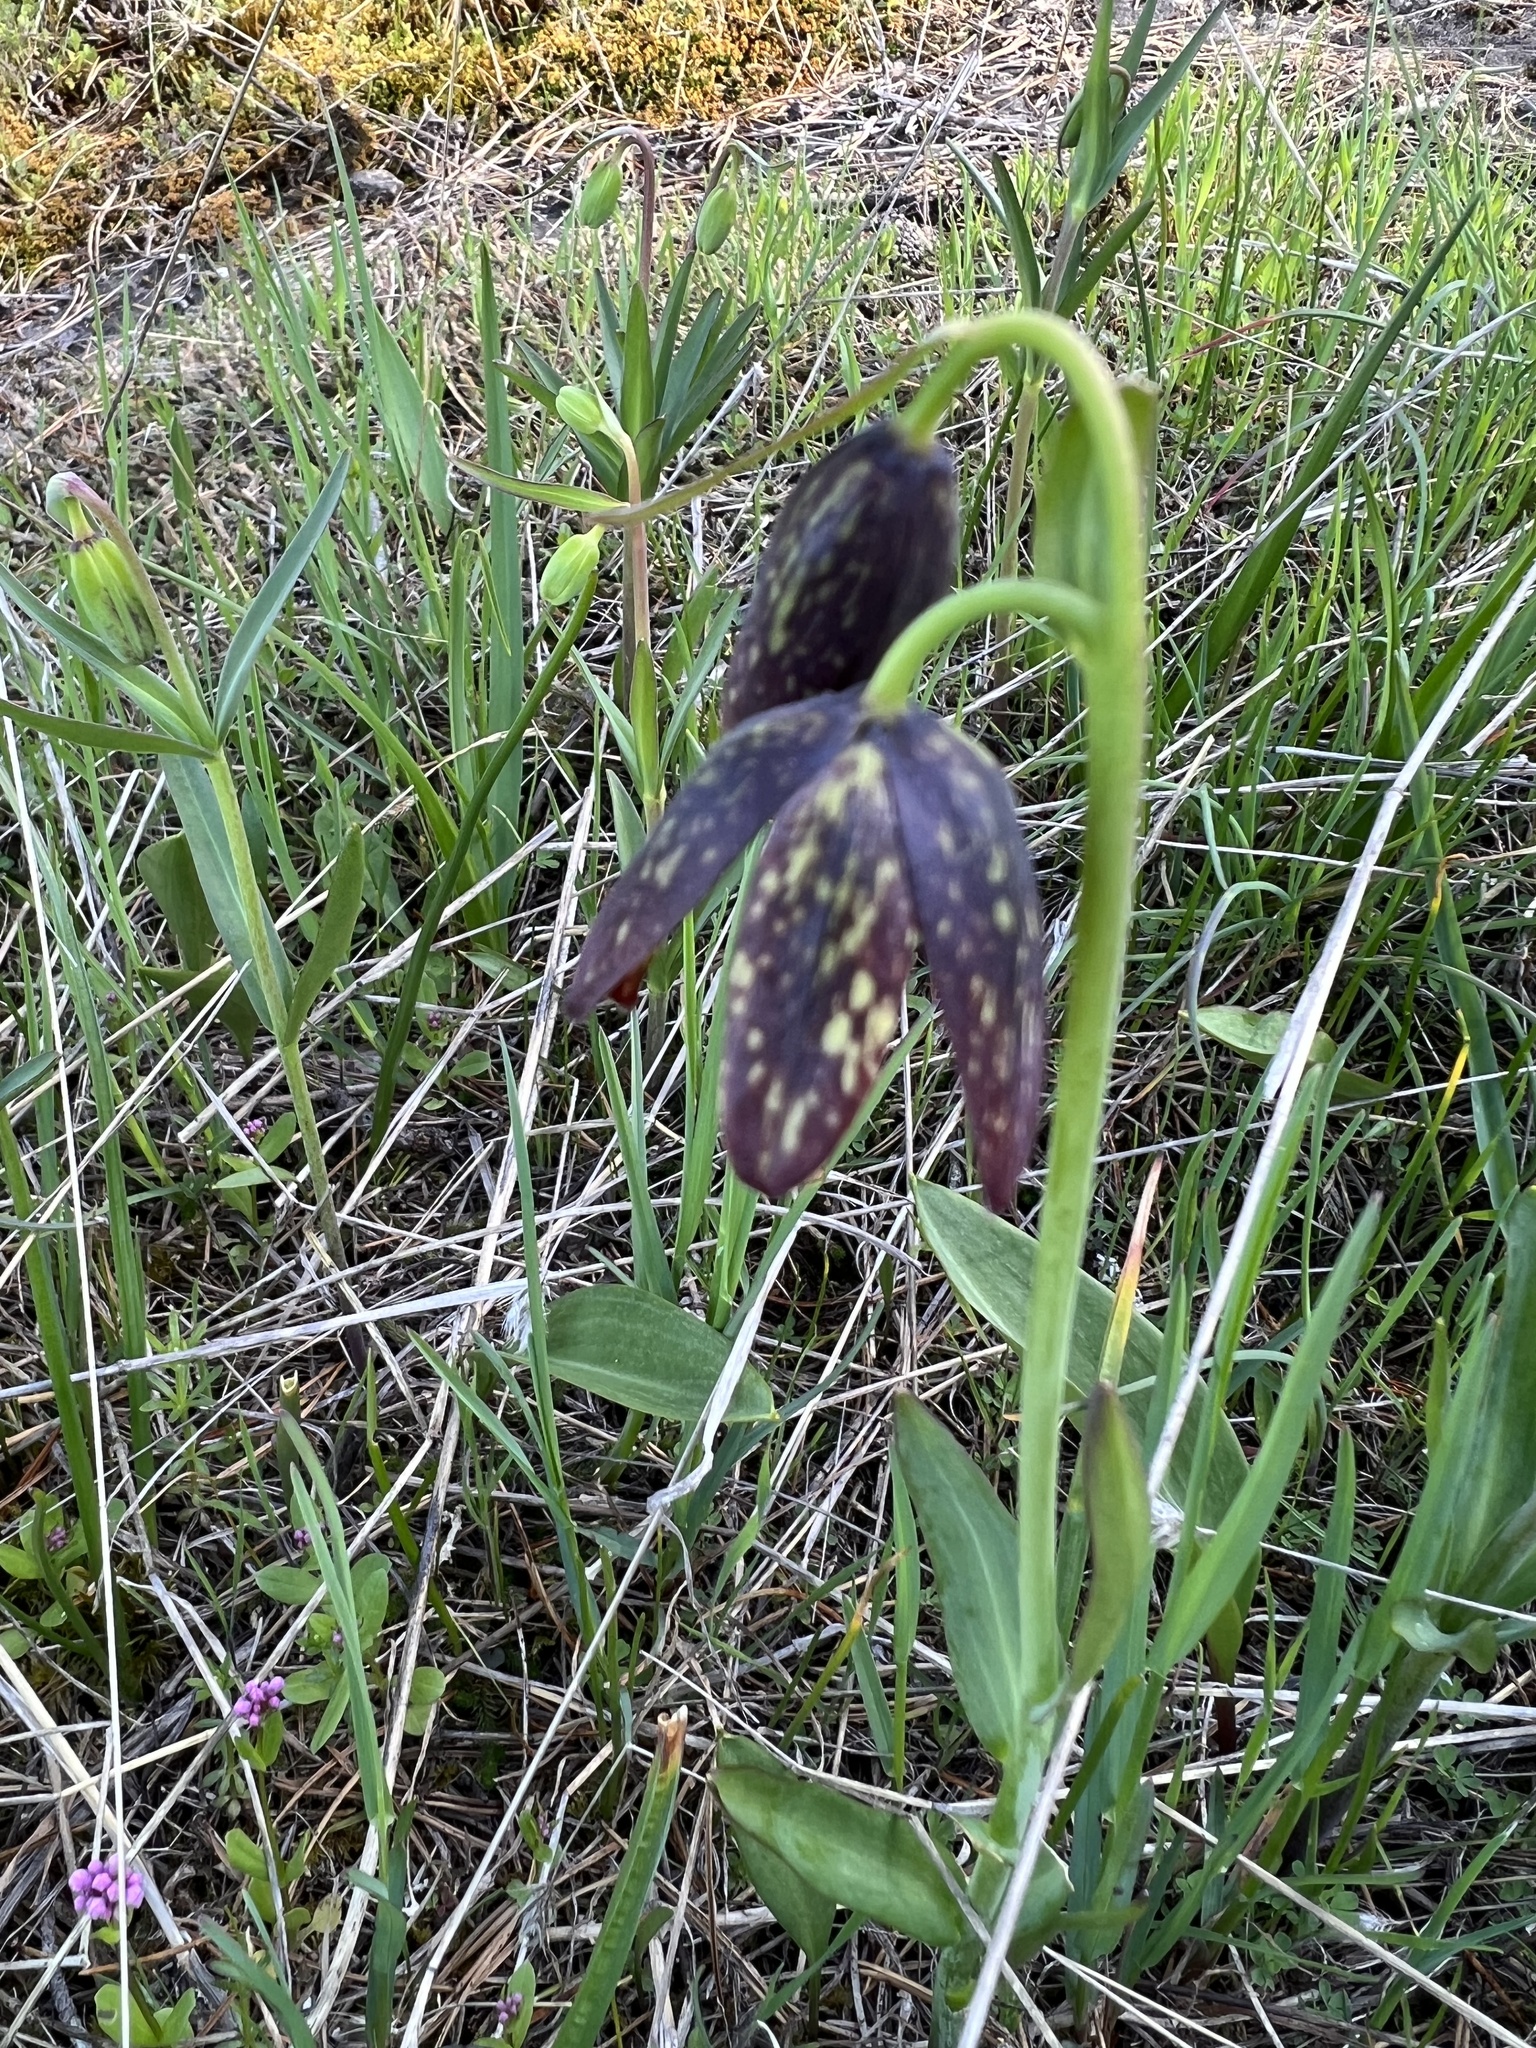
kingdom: Plantae
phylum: Tracheophyta
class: Liliopsida
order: Liliales
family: Liliaceae
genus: Fritillaria
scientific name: Fritillaria affinis
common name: Ojai fritillary
